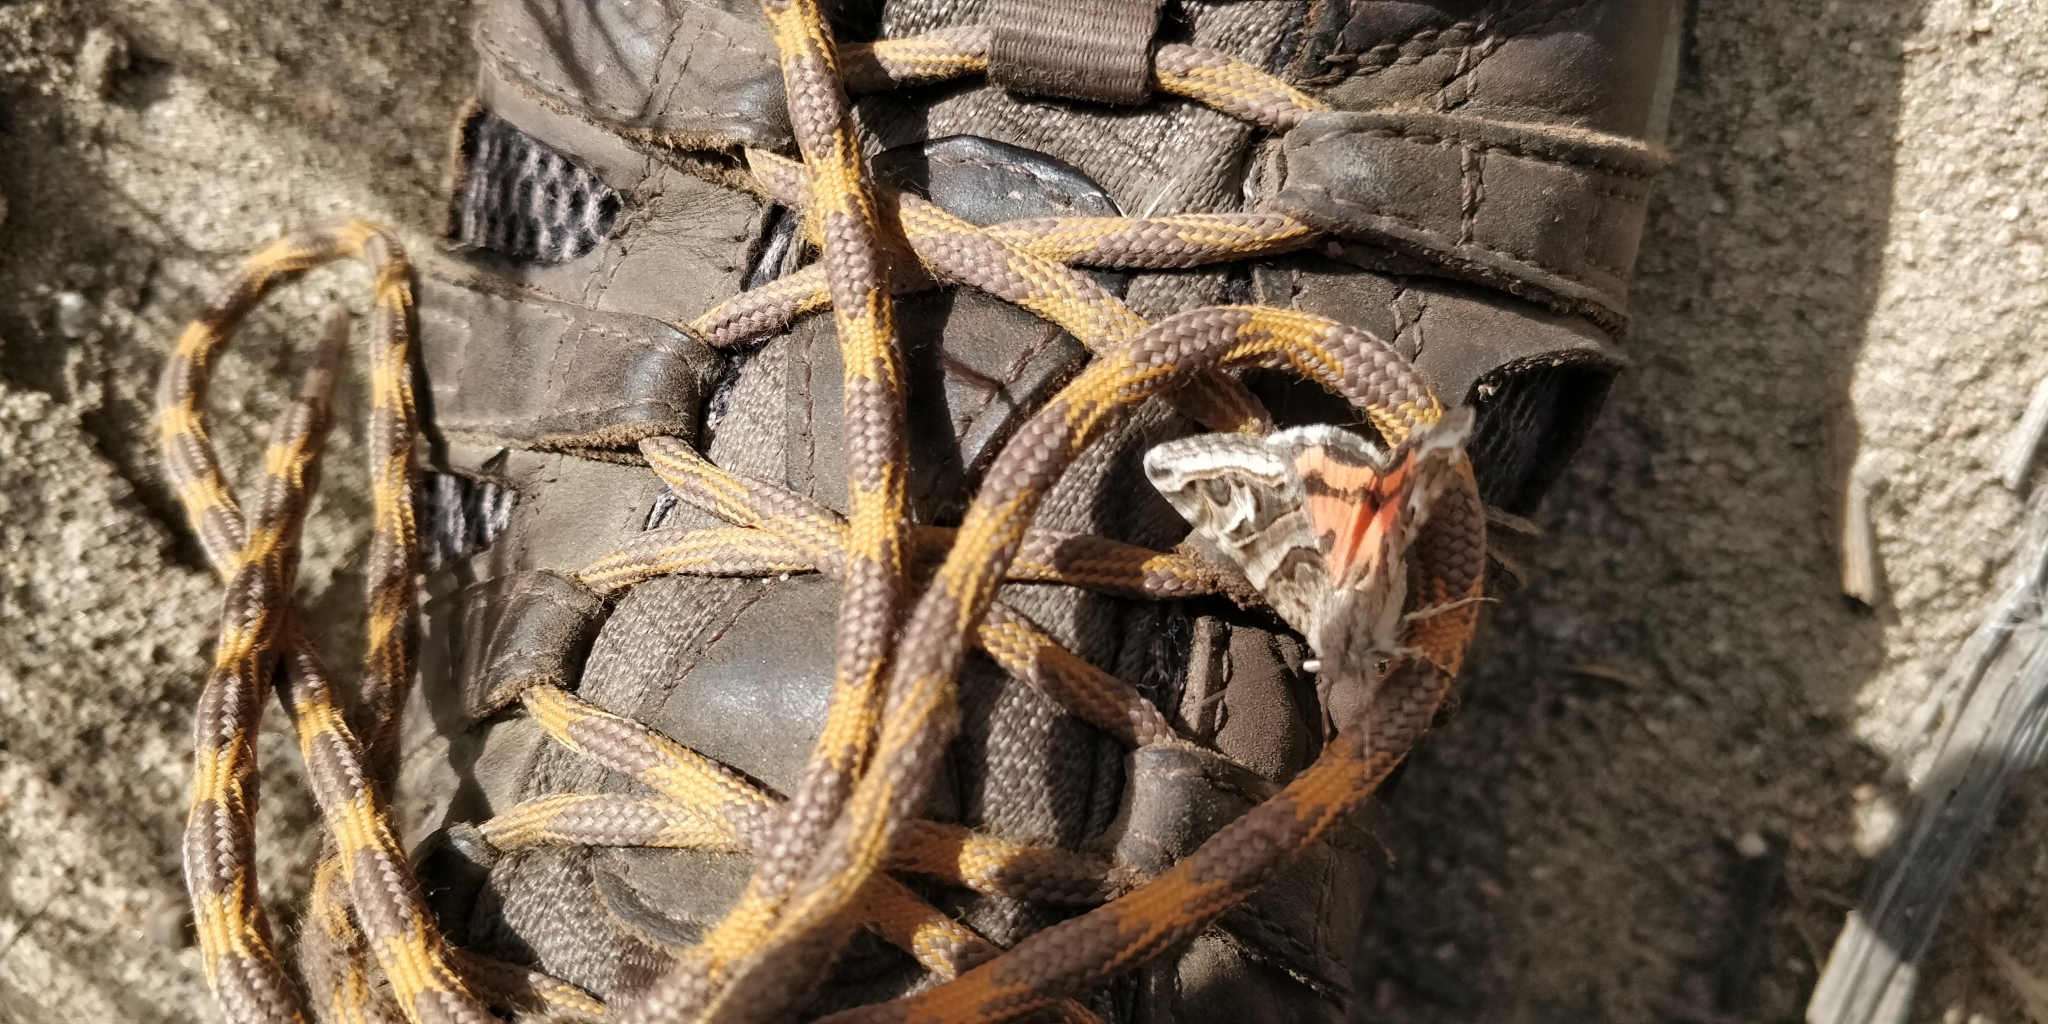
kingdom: Animalia
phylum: Arthropoda
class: Insecta
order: Lepidoptera
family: Erebidae
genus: Drasteria
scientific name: Drasteria mirifica
